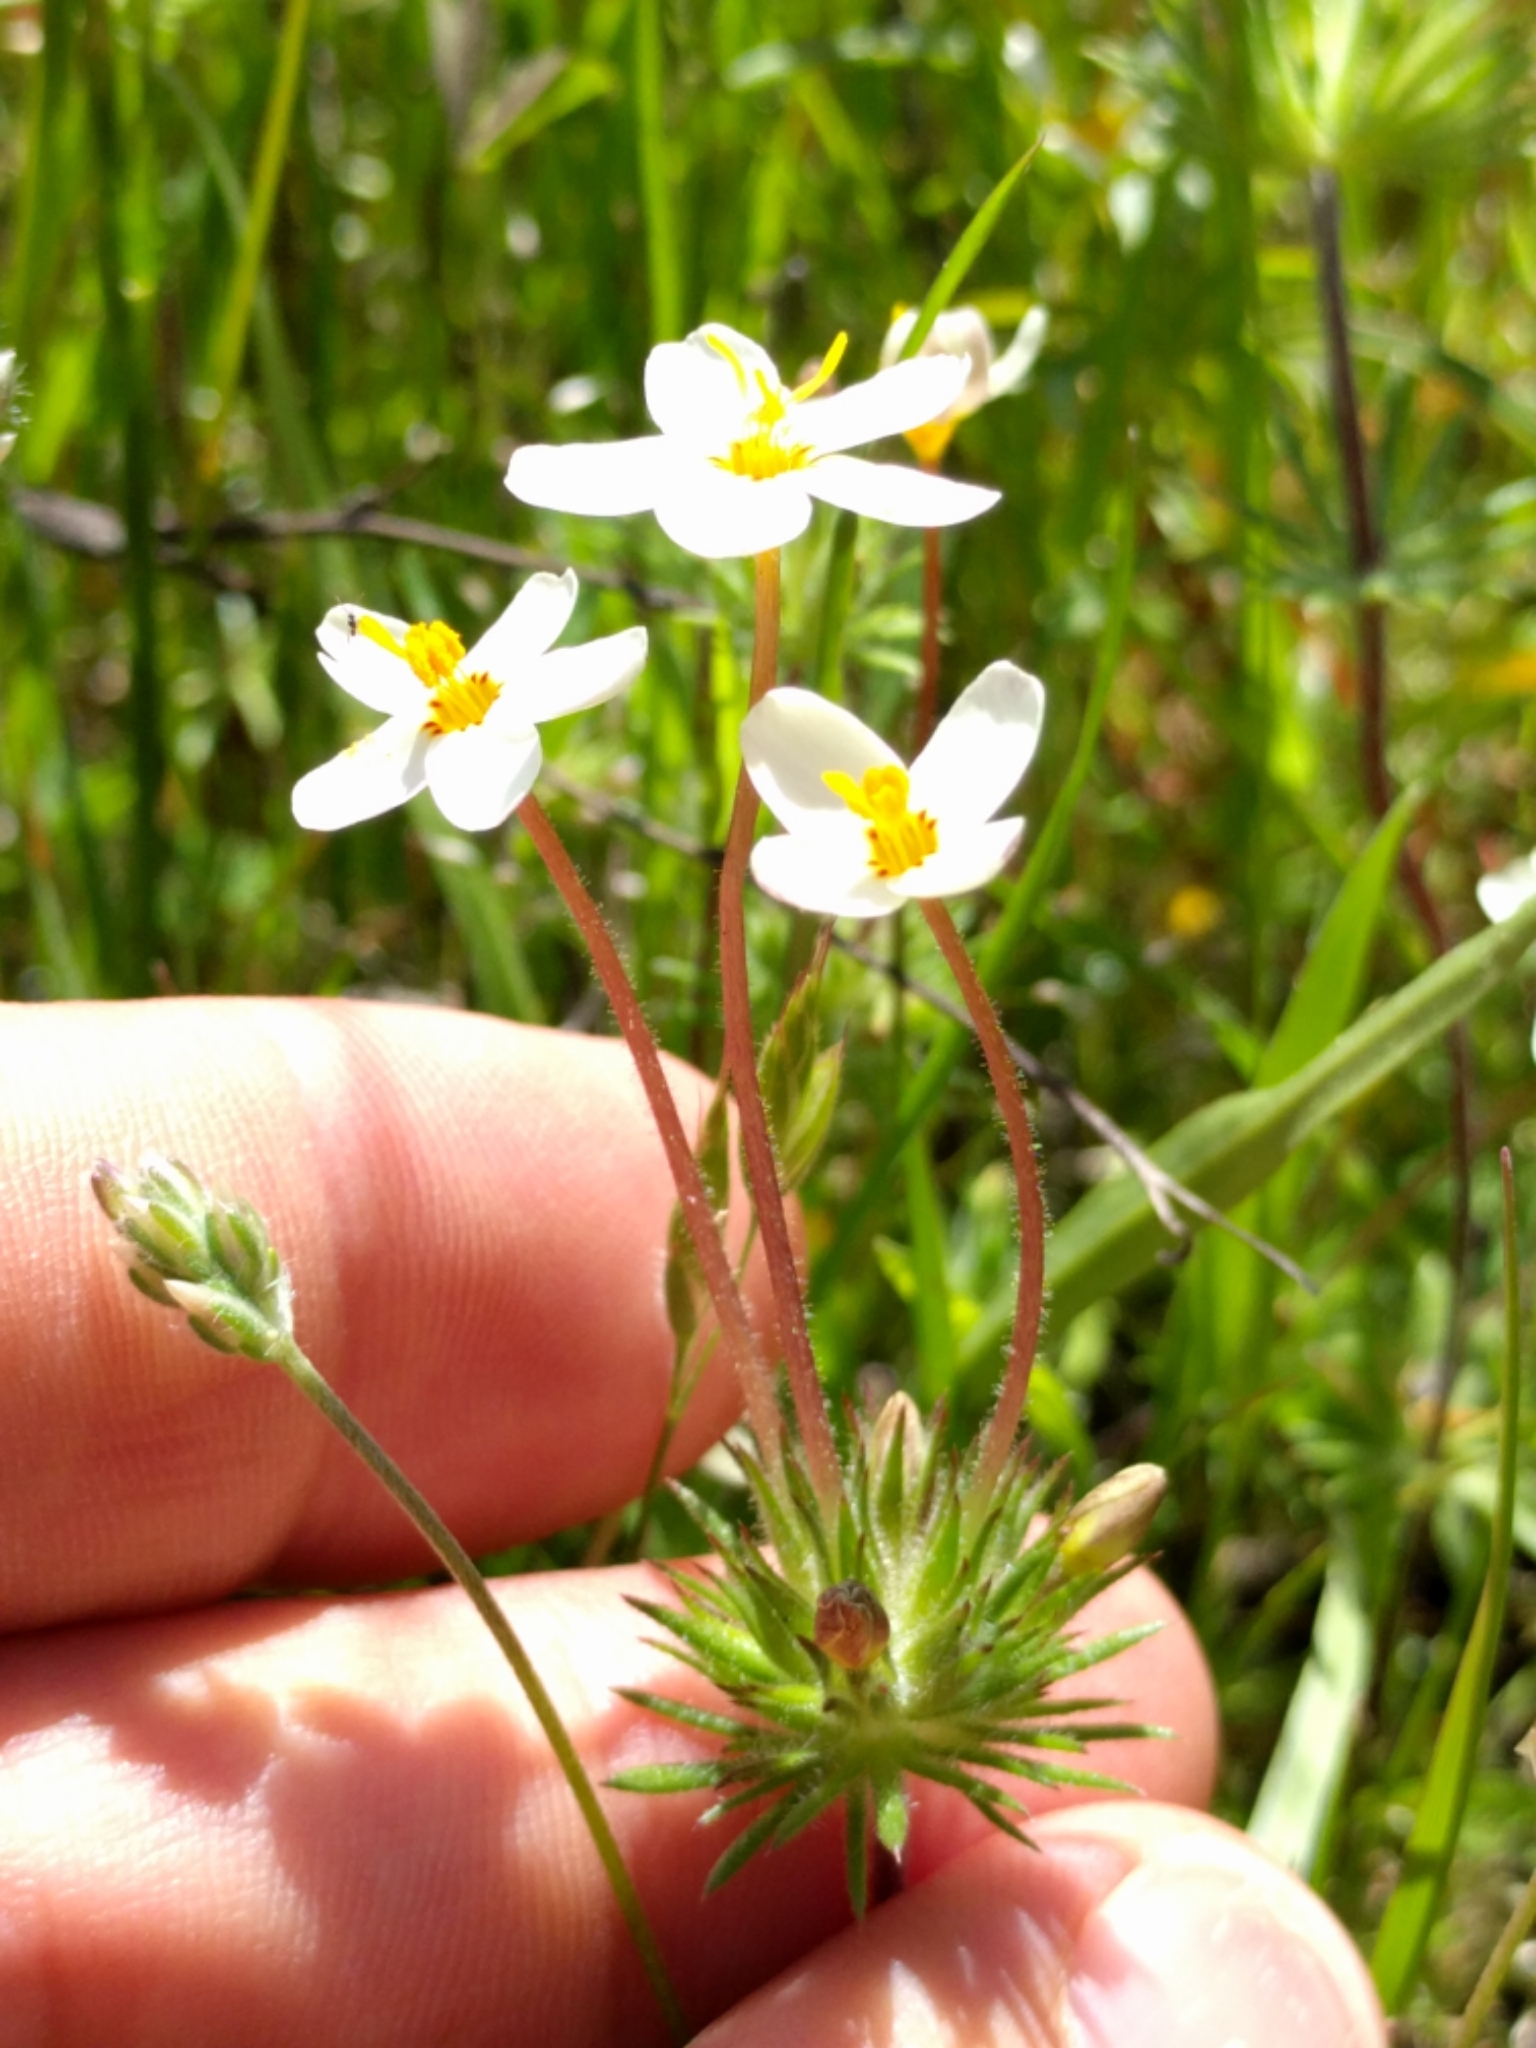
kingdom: Plantae
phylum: Tracheophyta
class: Magnoliopsida
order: Ericales
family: Polemoniaceae
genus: Leptosiphon
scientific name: Leptosiphon parviflorus
